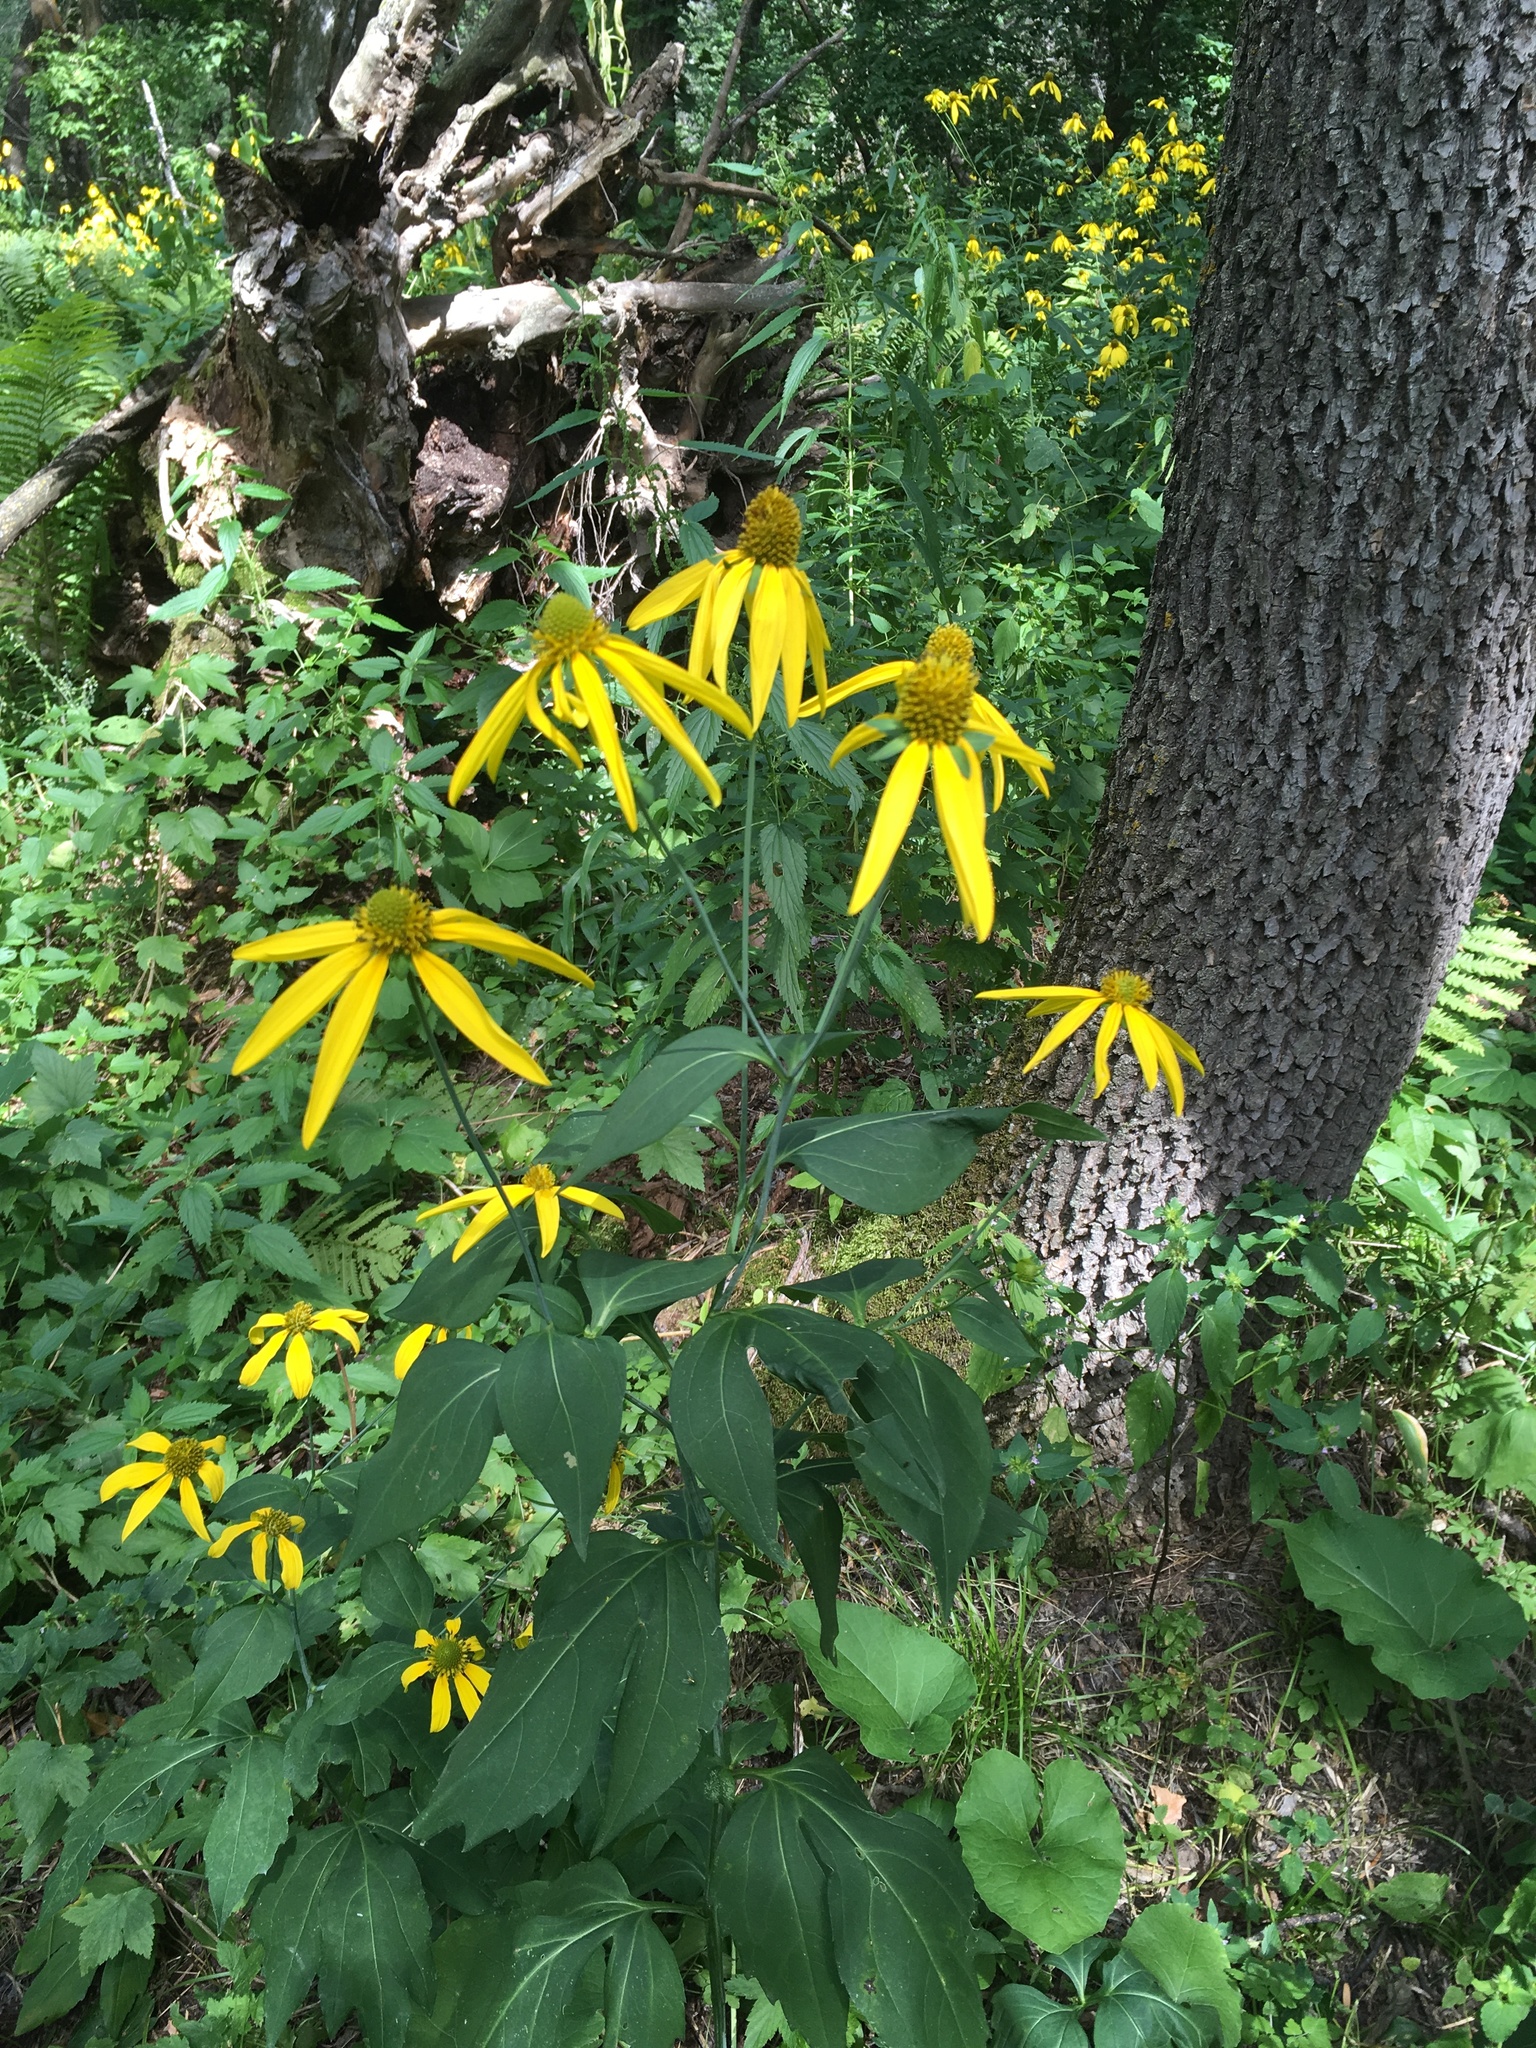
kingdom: Plantae
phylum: Tracheophyta
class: Magnoliopsida
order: Asterales
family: Asteraceae
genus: Rudbeckia
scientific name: Rudbeckia laciniata
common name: Coneflower
